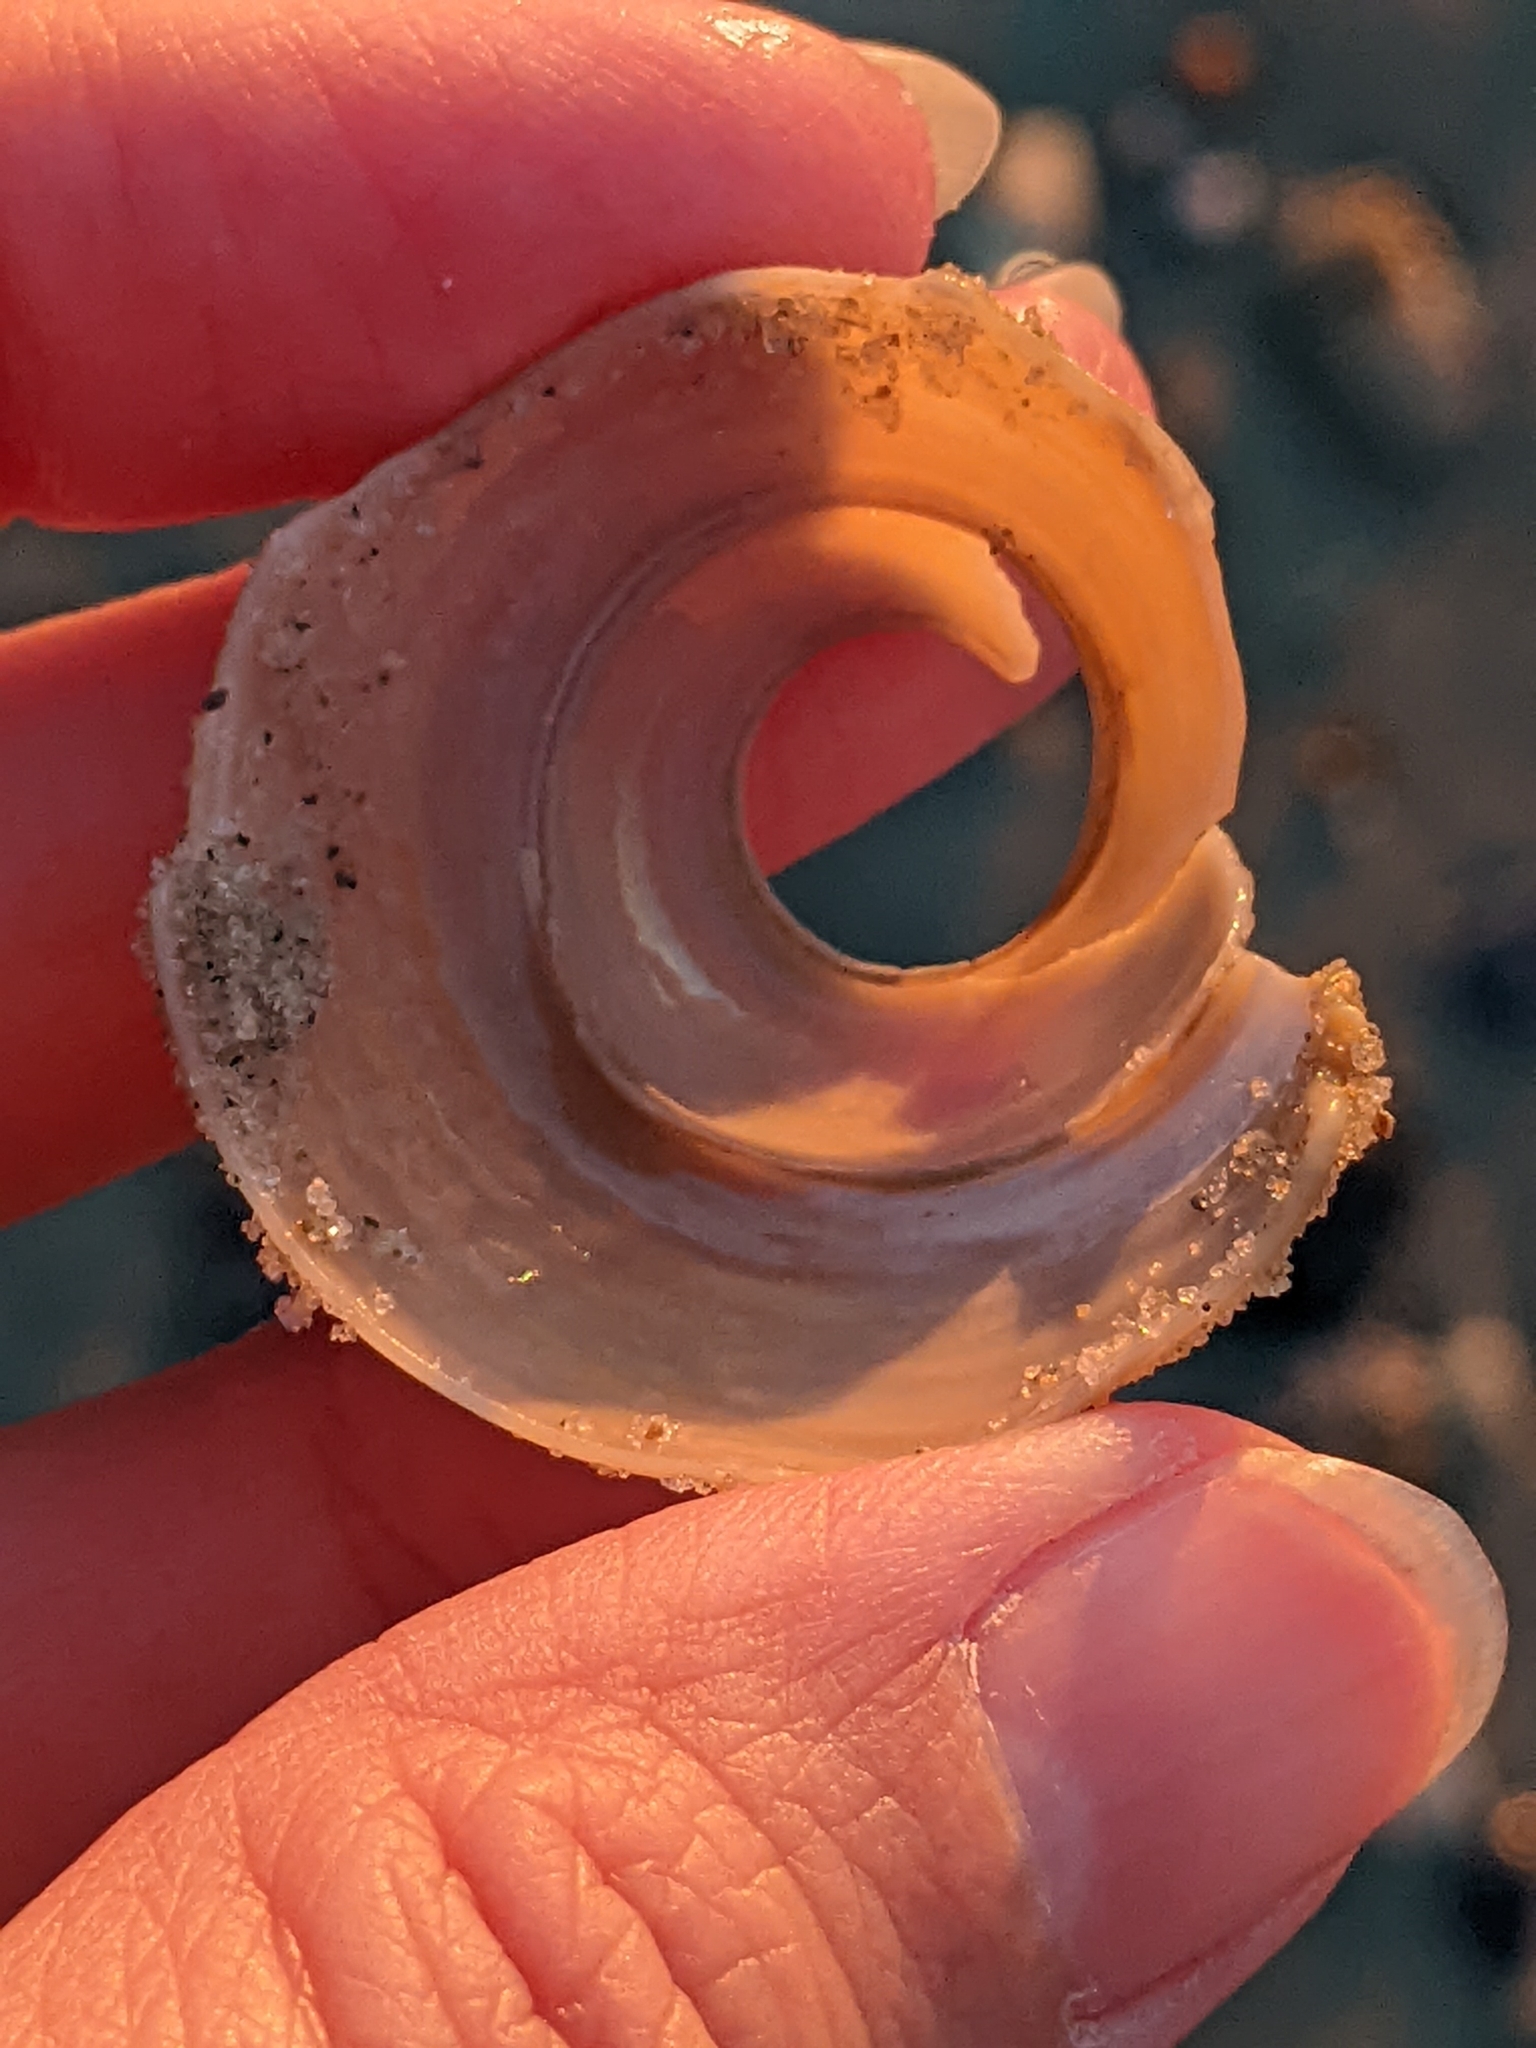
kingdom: Animalia
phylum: Mollusca
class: Gastropoda
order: Littorinimorpha
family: Cassidae
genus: Semicassis
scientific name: Semicassis granulata
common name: Scotch bonnet
